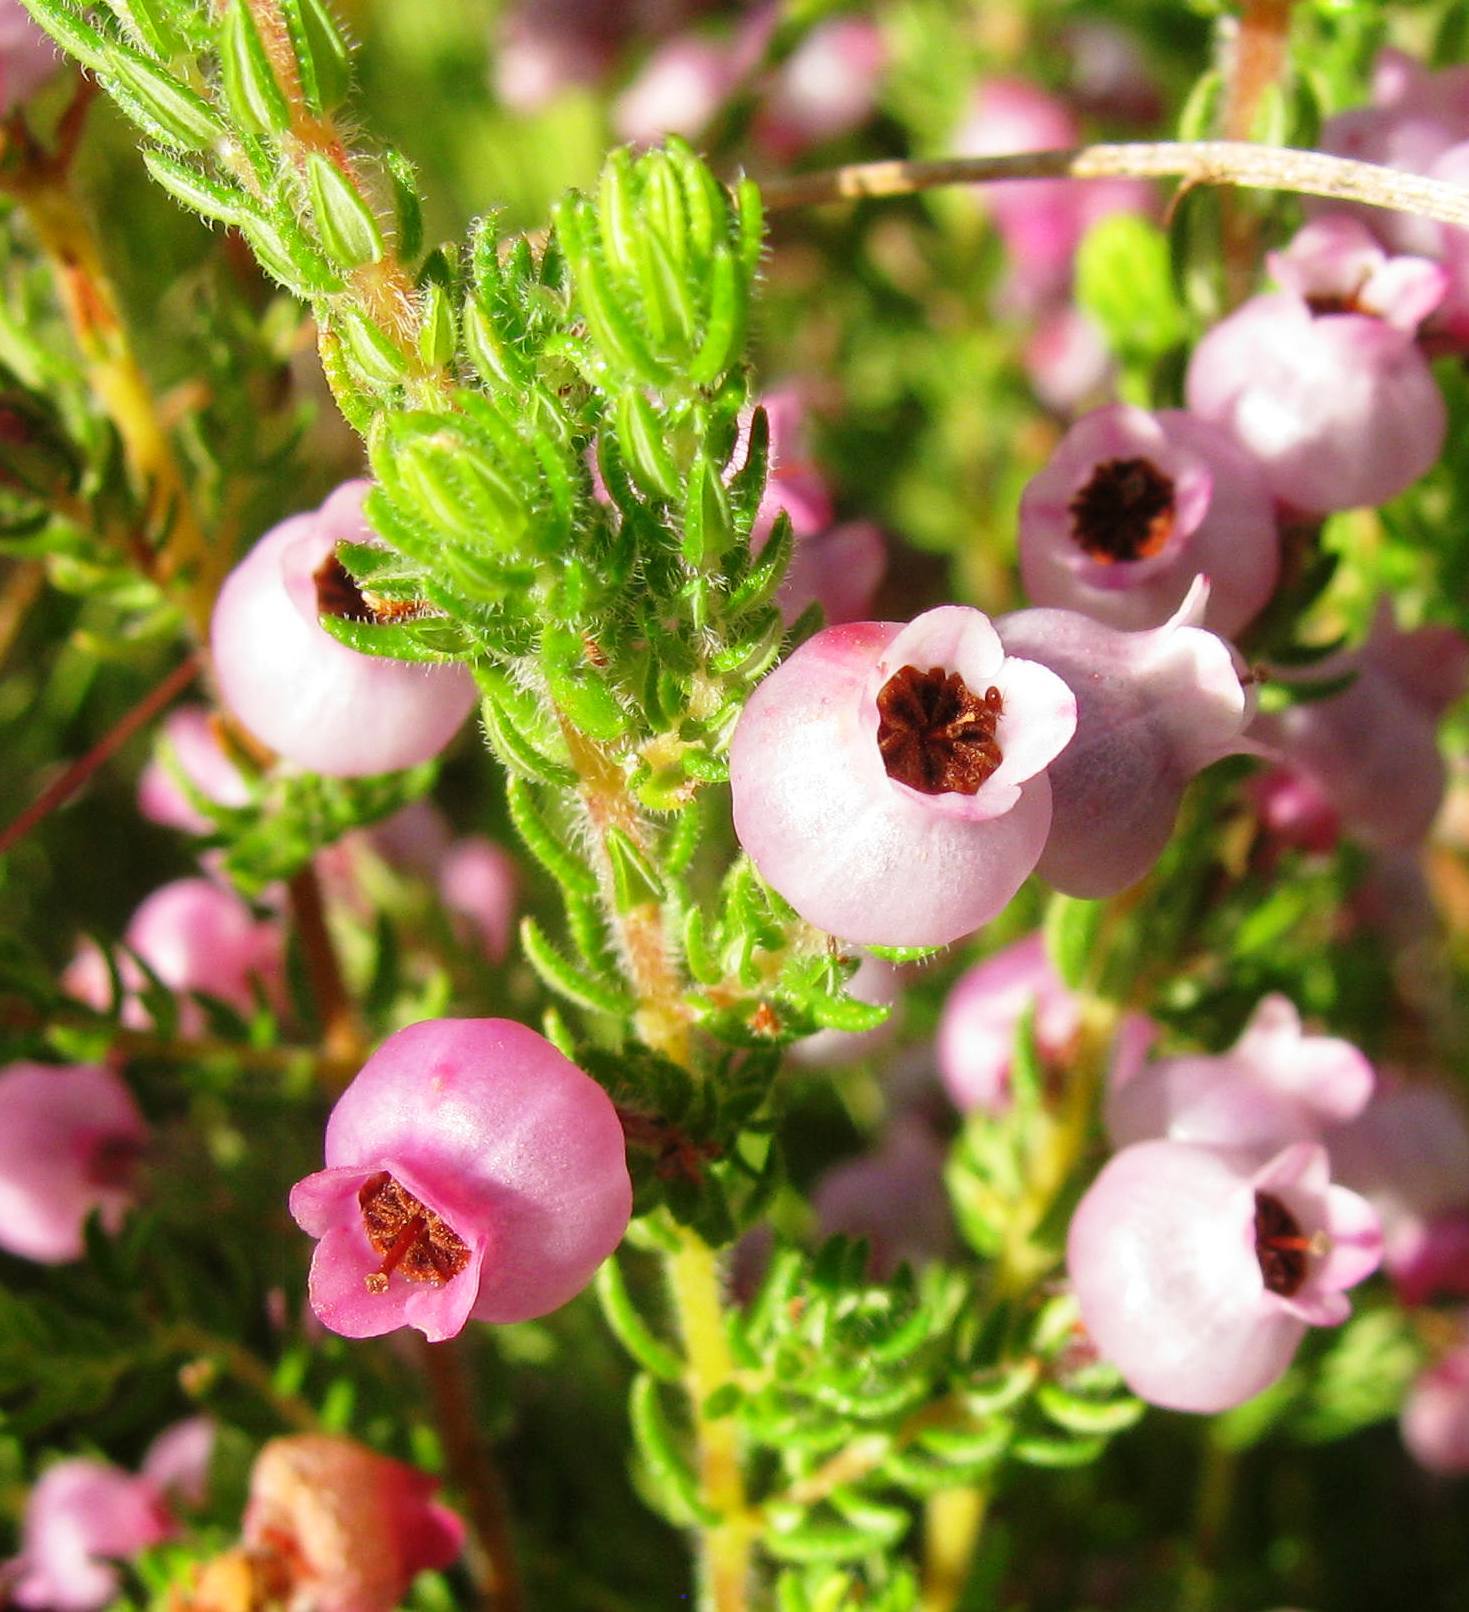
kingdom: Plantae
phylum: Tracheophyta
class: Magnoliopsida
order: Ericales
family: Ericaceae
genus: Erica
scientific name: Erica bergiana
